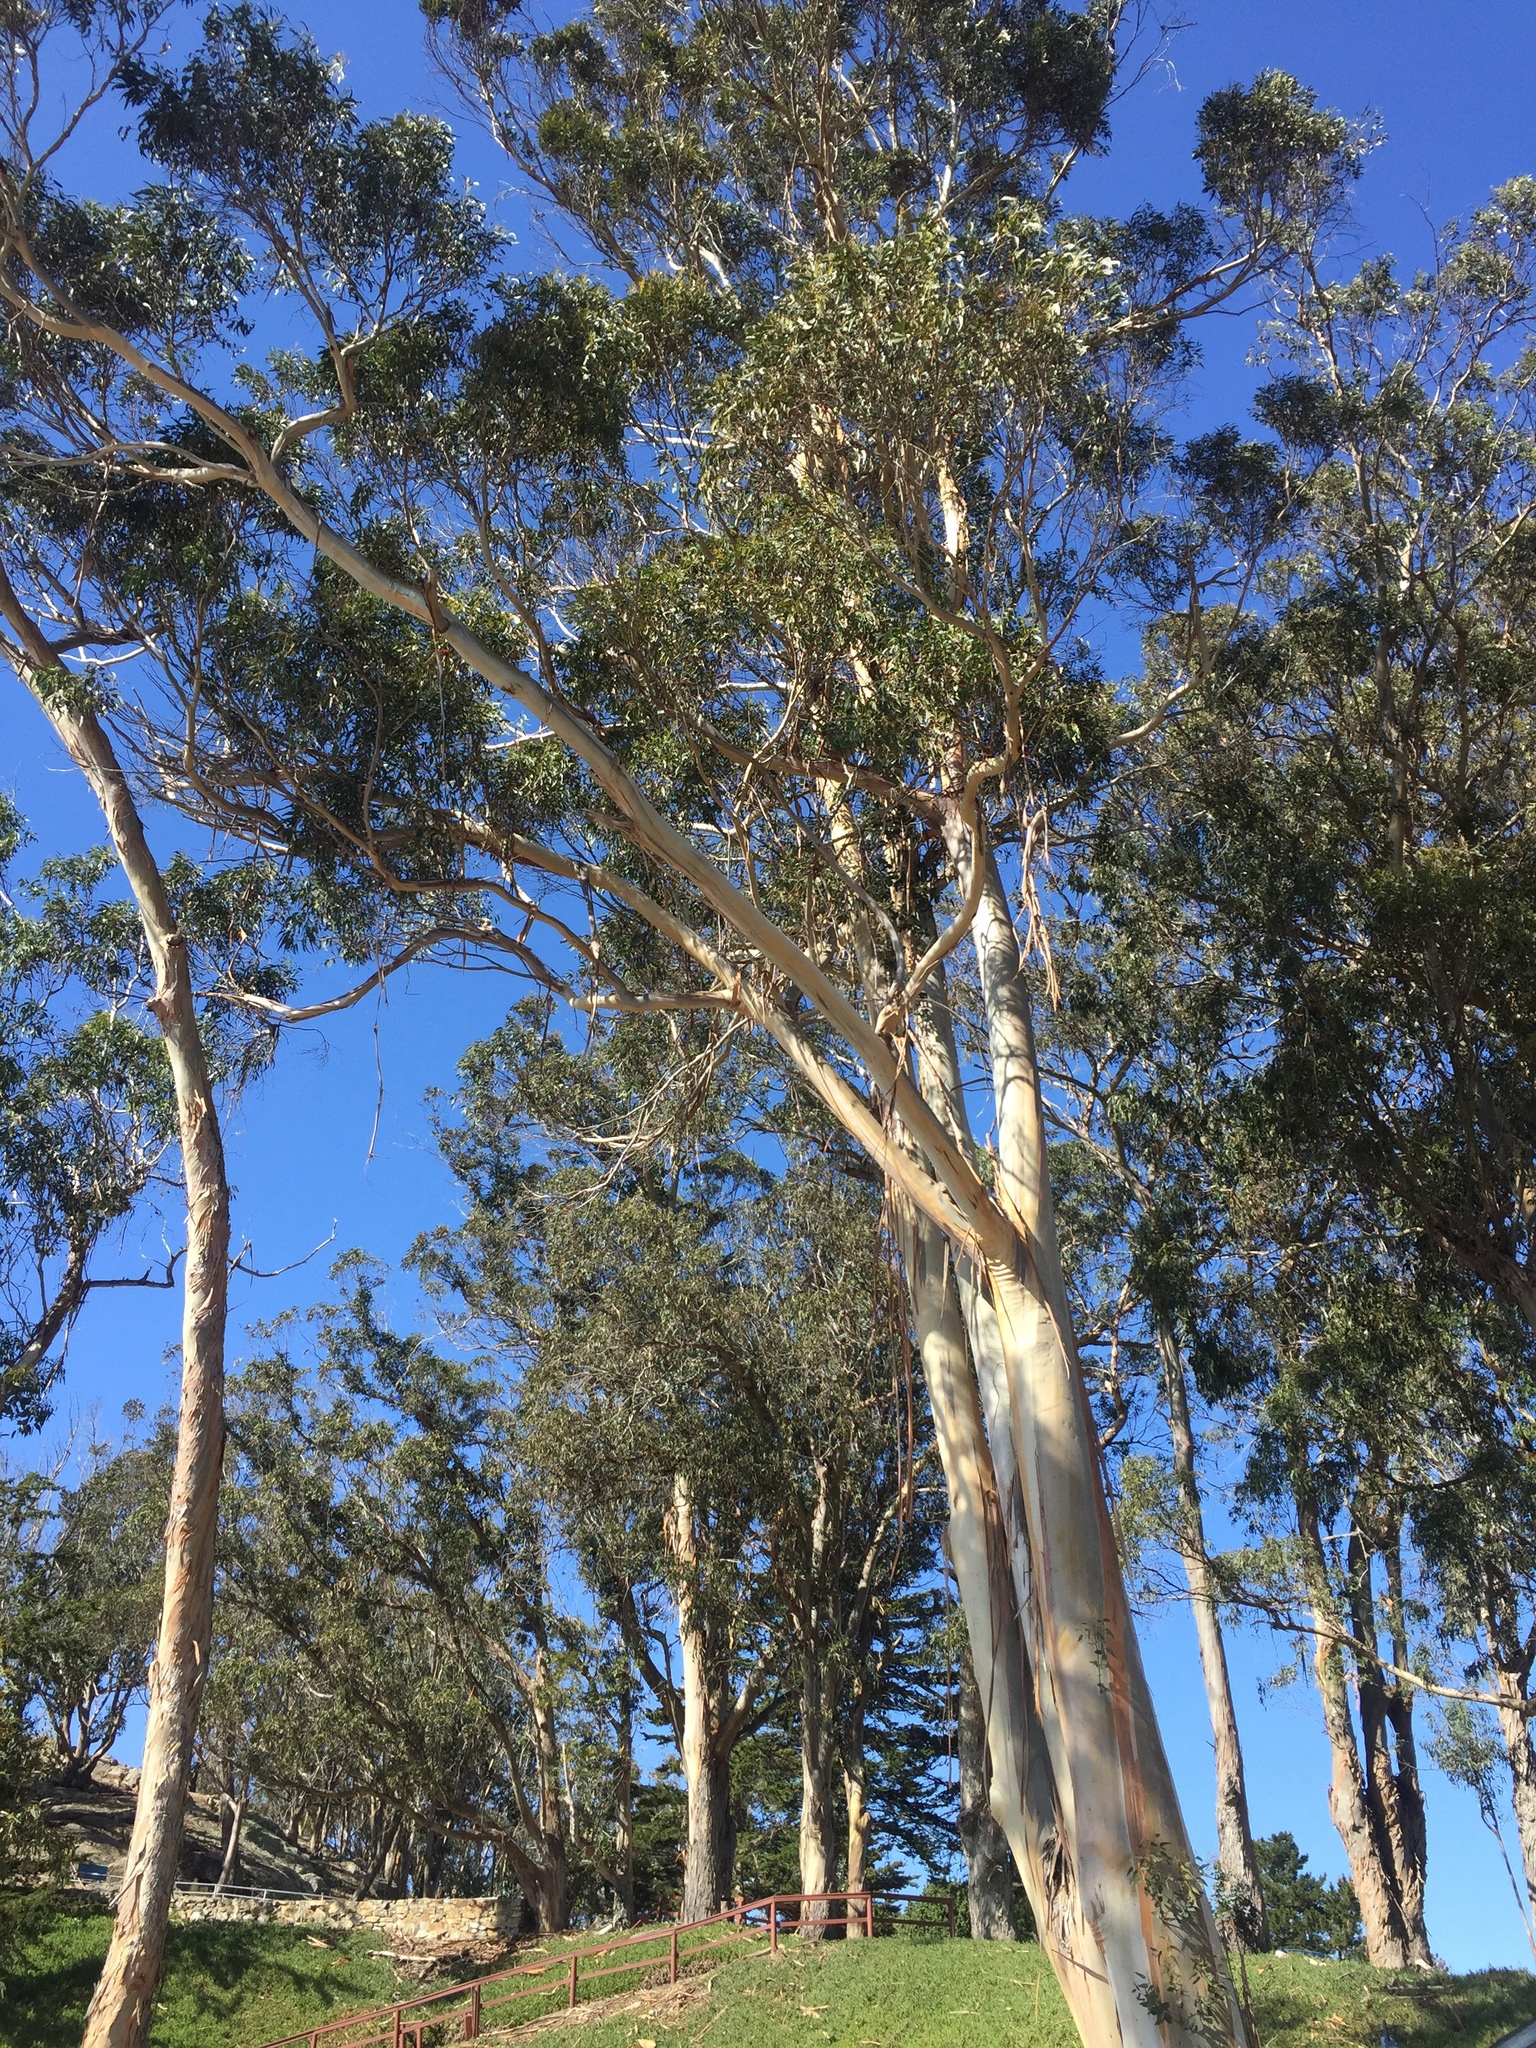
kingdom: Plantae
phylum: Tracheophyta
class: Magnoliopsida
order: Myrtales
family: Myrtaceae
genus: Eucalyptus
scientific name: Eucalyptus globulus
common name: Southern blue-gum
